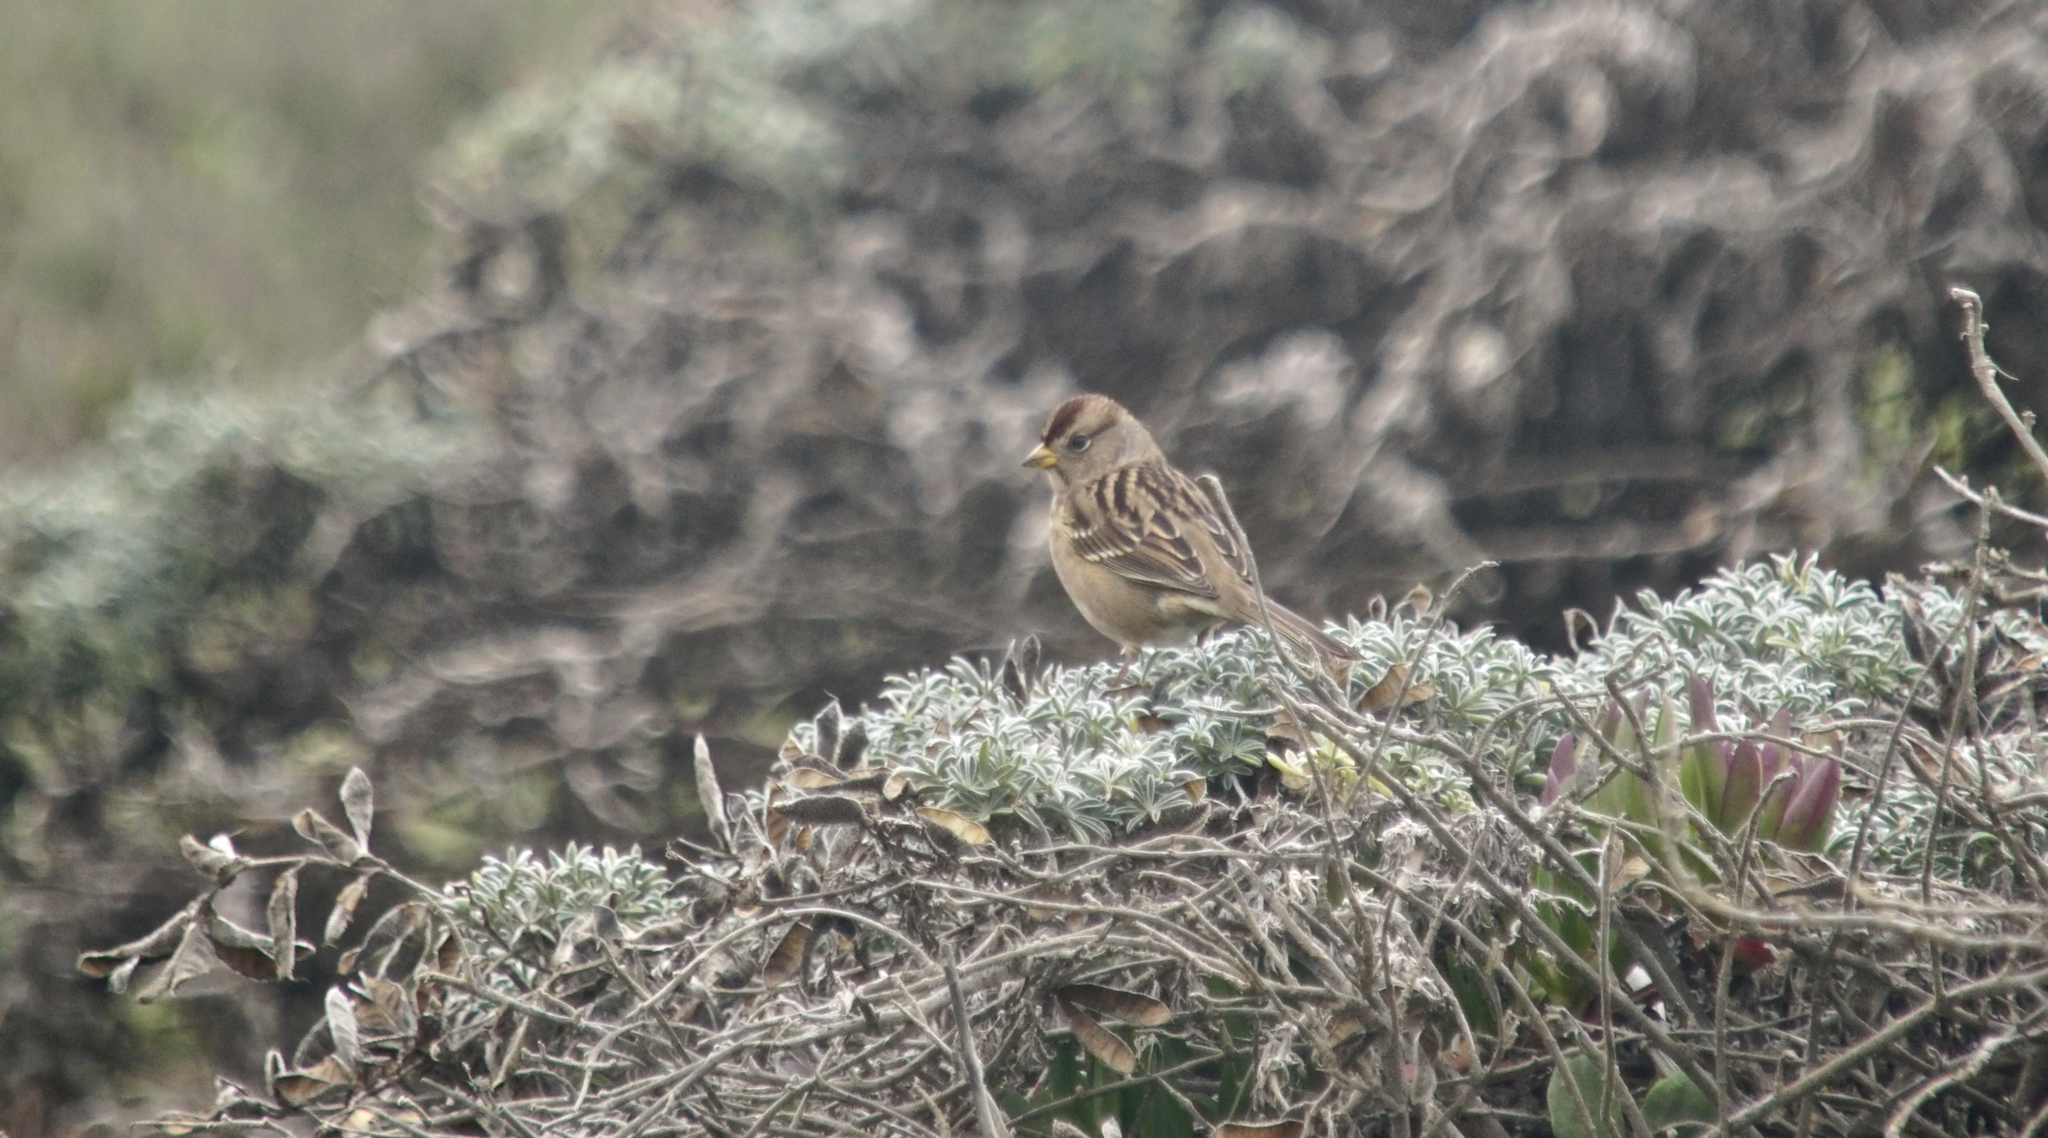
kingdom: Animalia
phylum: Chordata
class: Aves
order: Passeriformes
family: Passerellidae
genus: Zonotrichia
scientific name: Zonotrichia leucophrys
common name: White-crowned sparrow
